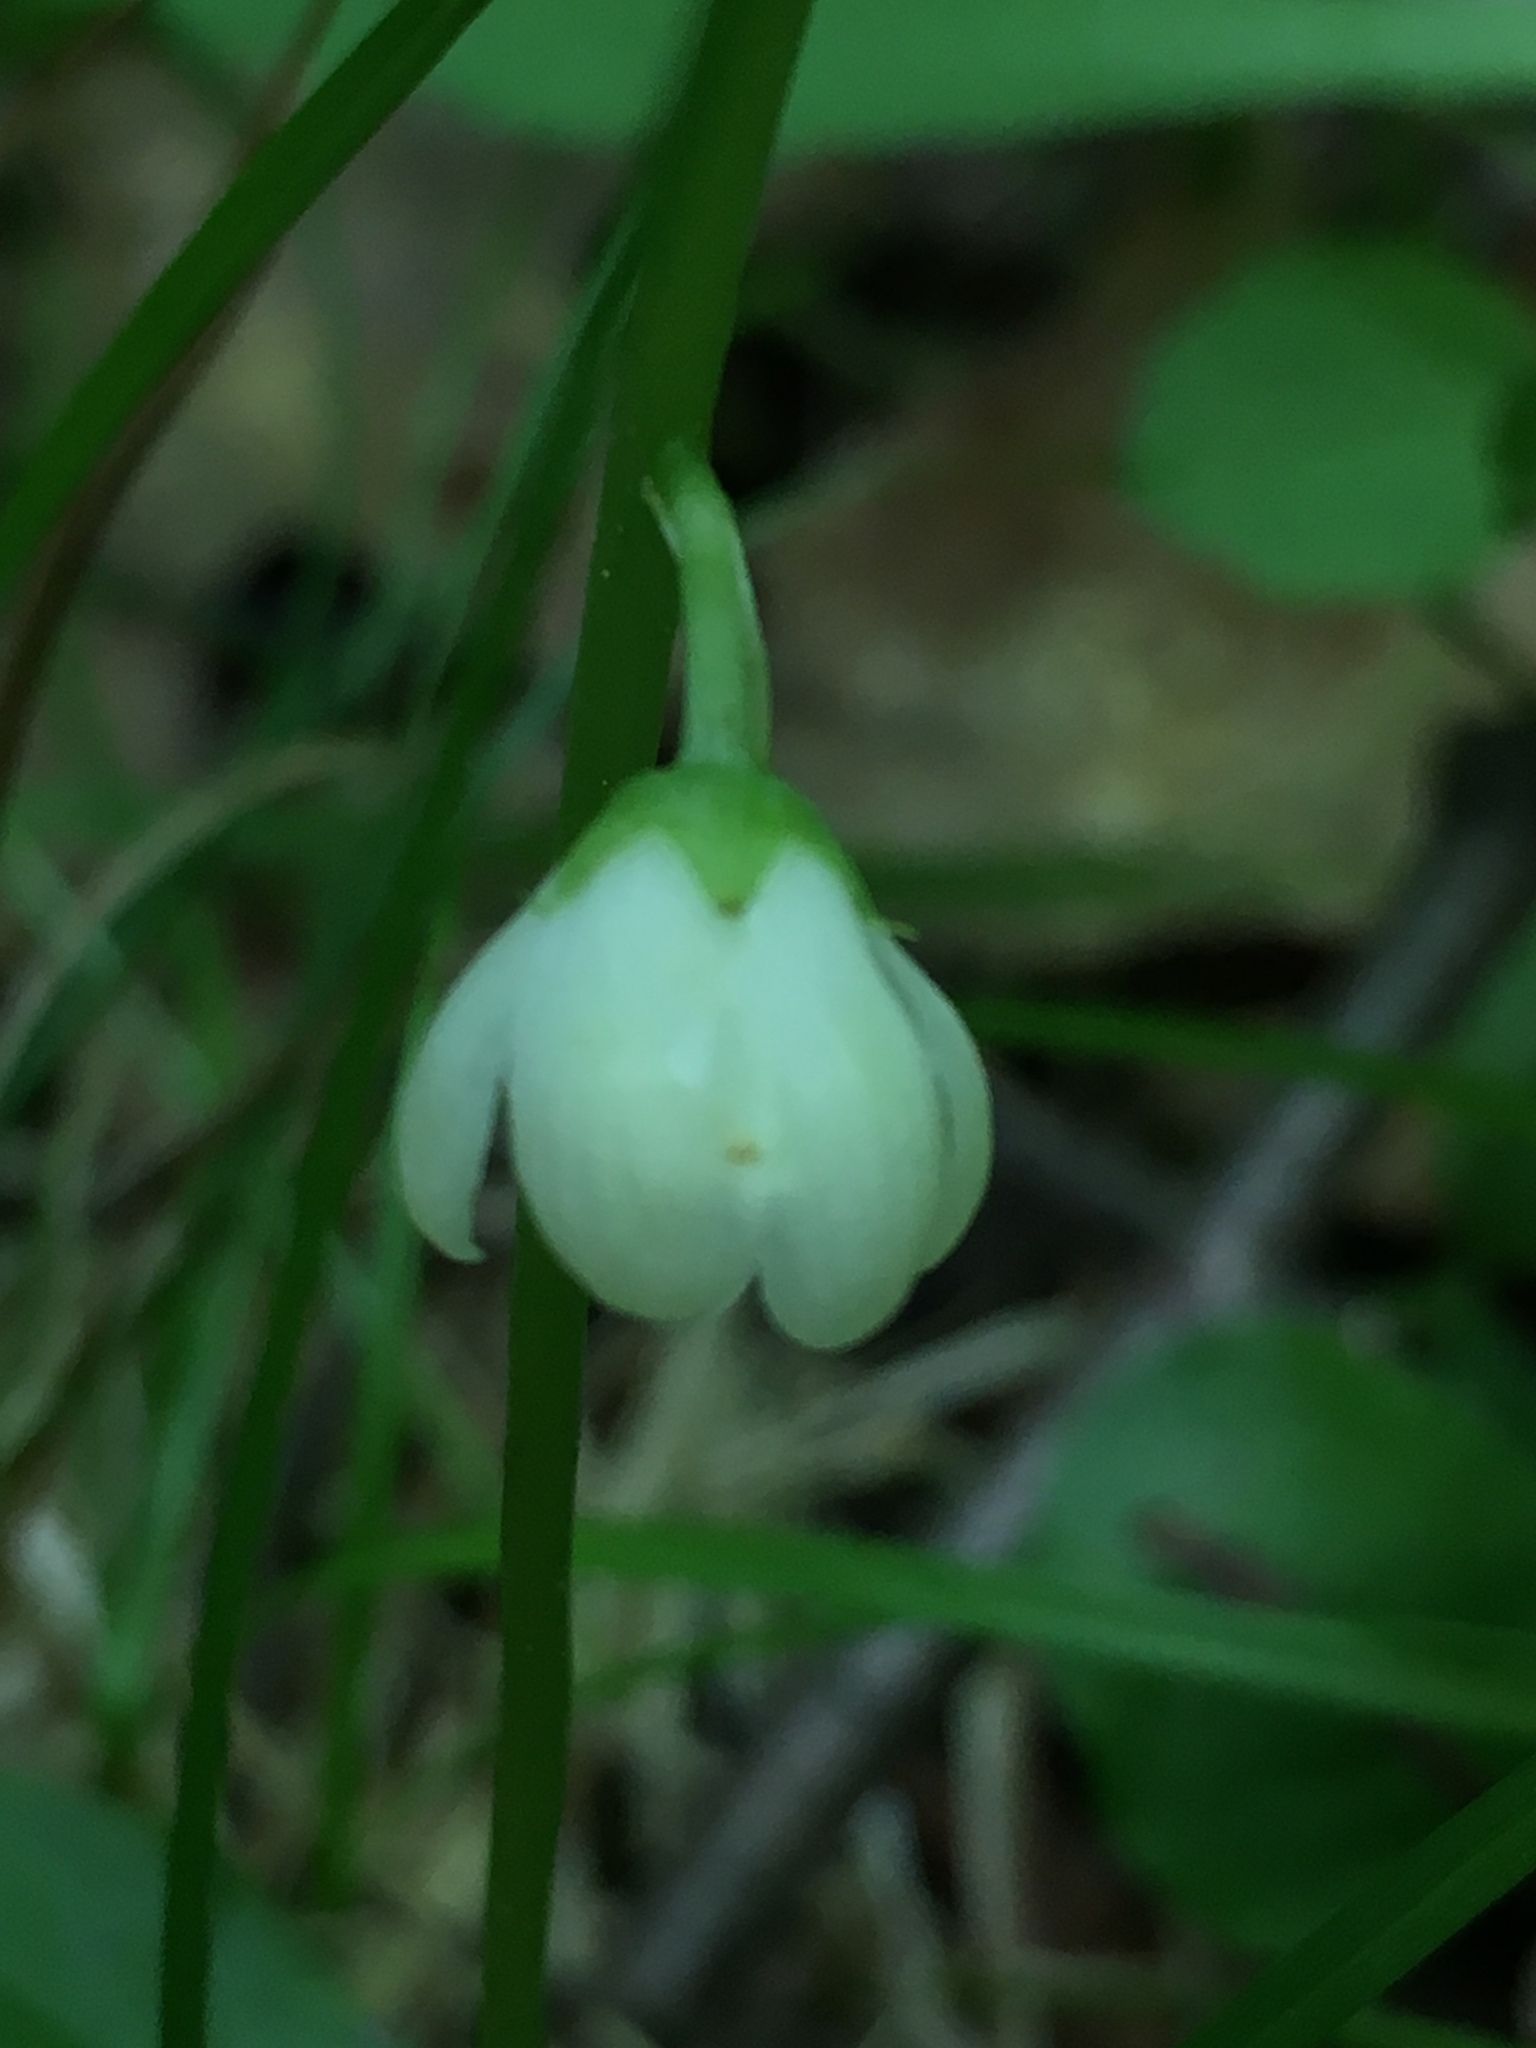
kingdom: Plantae
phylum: Tracheophyta
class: Magnoliopsida
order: Ericales
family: Ericaceae
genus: Pyrola
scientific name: Pyrola elliptica
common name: Shinleaf
